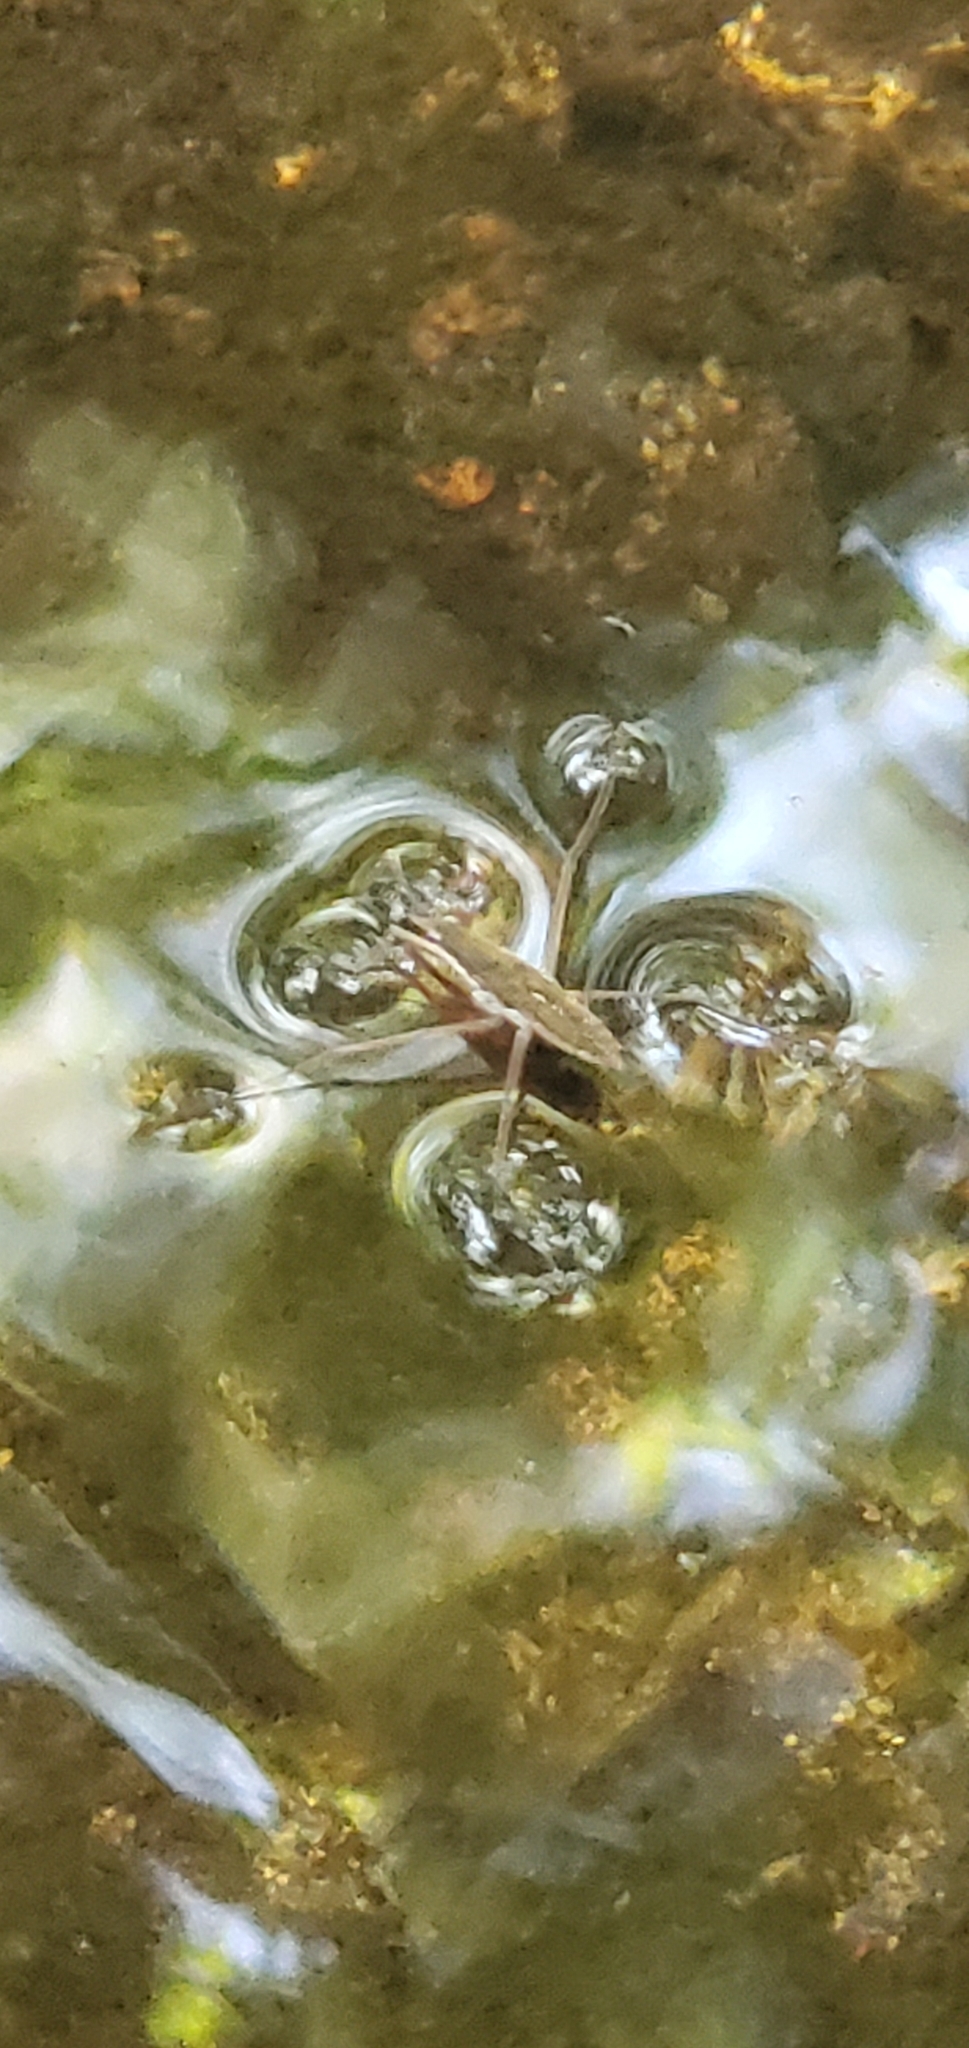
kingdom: Animalia
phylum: Arthropoda
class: Insecta
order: Hemiptera
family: Gerridae
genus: Aquarius
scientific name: Aquarius remigis
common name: Common water strider
